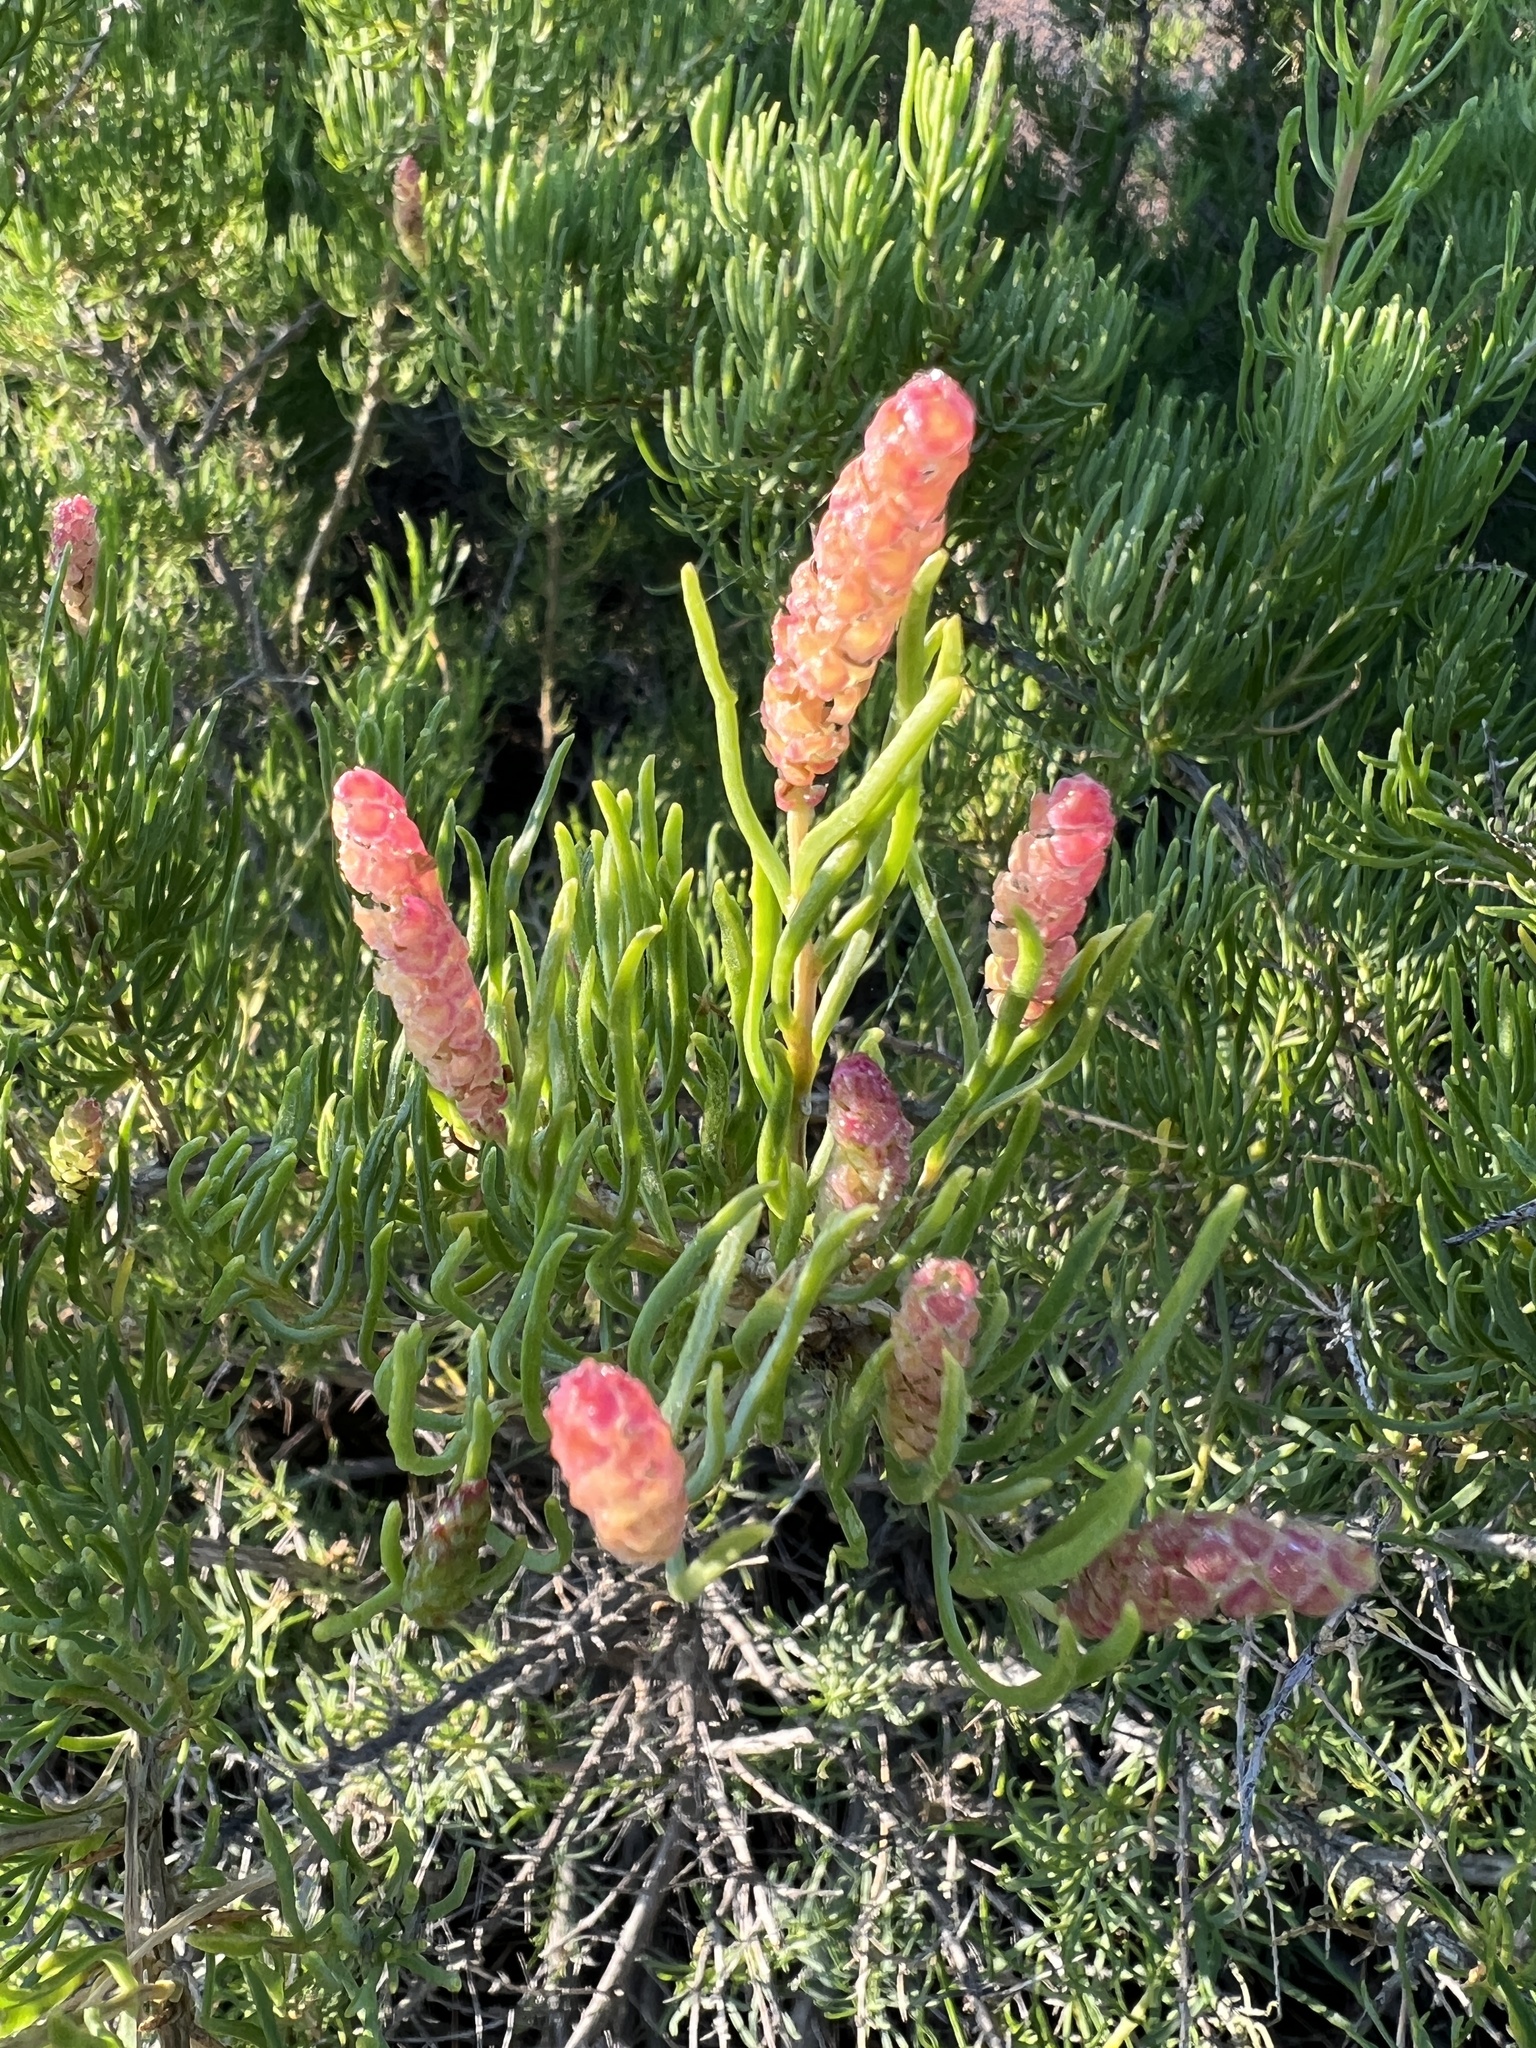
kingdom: Plantae
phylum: Tracheophyta
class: Magnoliopsida
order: Caryophyllales
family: Sarcobataceae
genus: Sarcobatus
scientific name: Sarcobatus vermiculatus
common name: Greasewood
